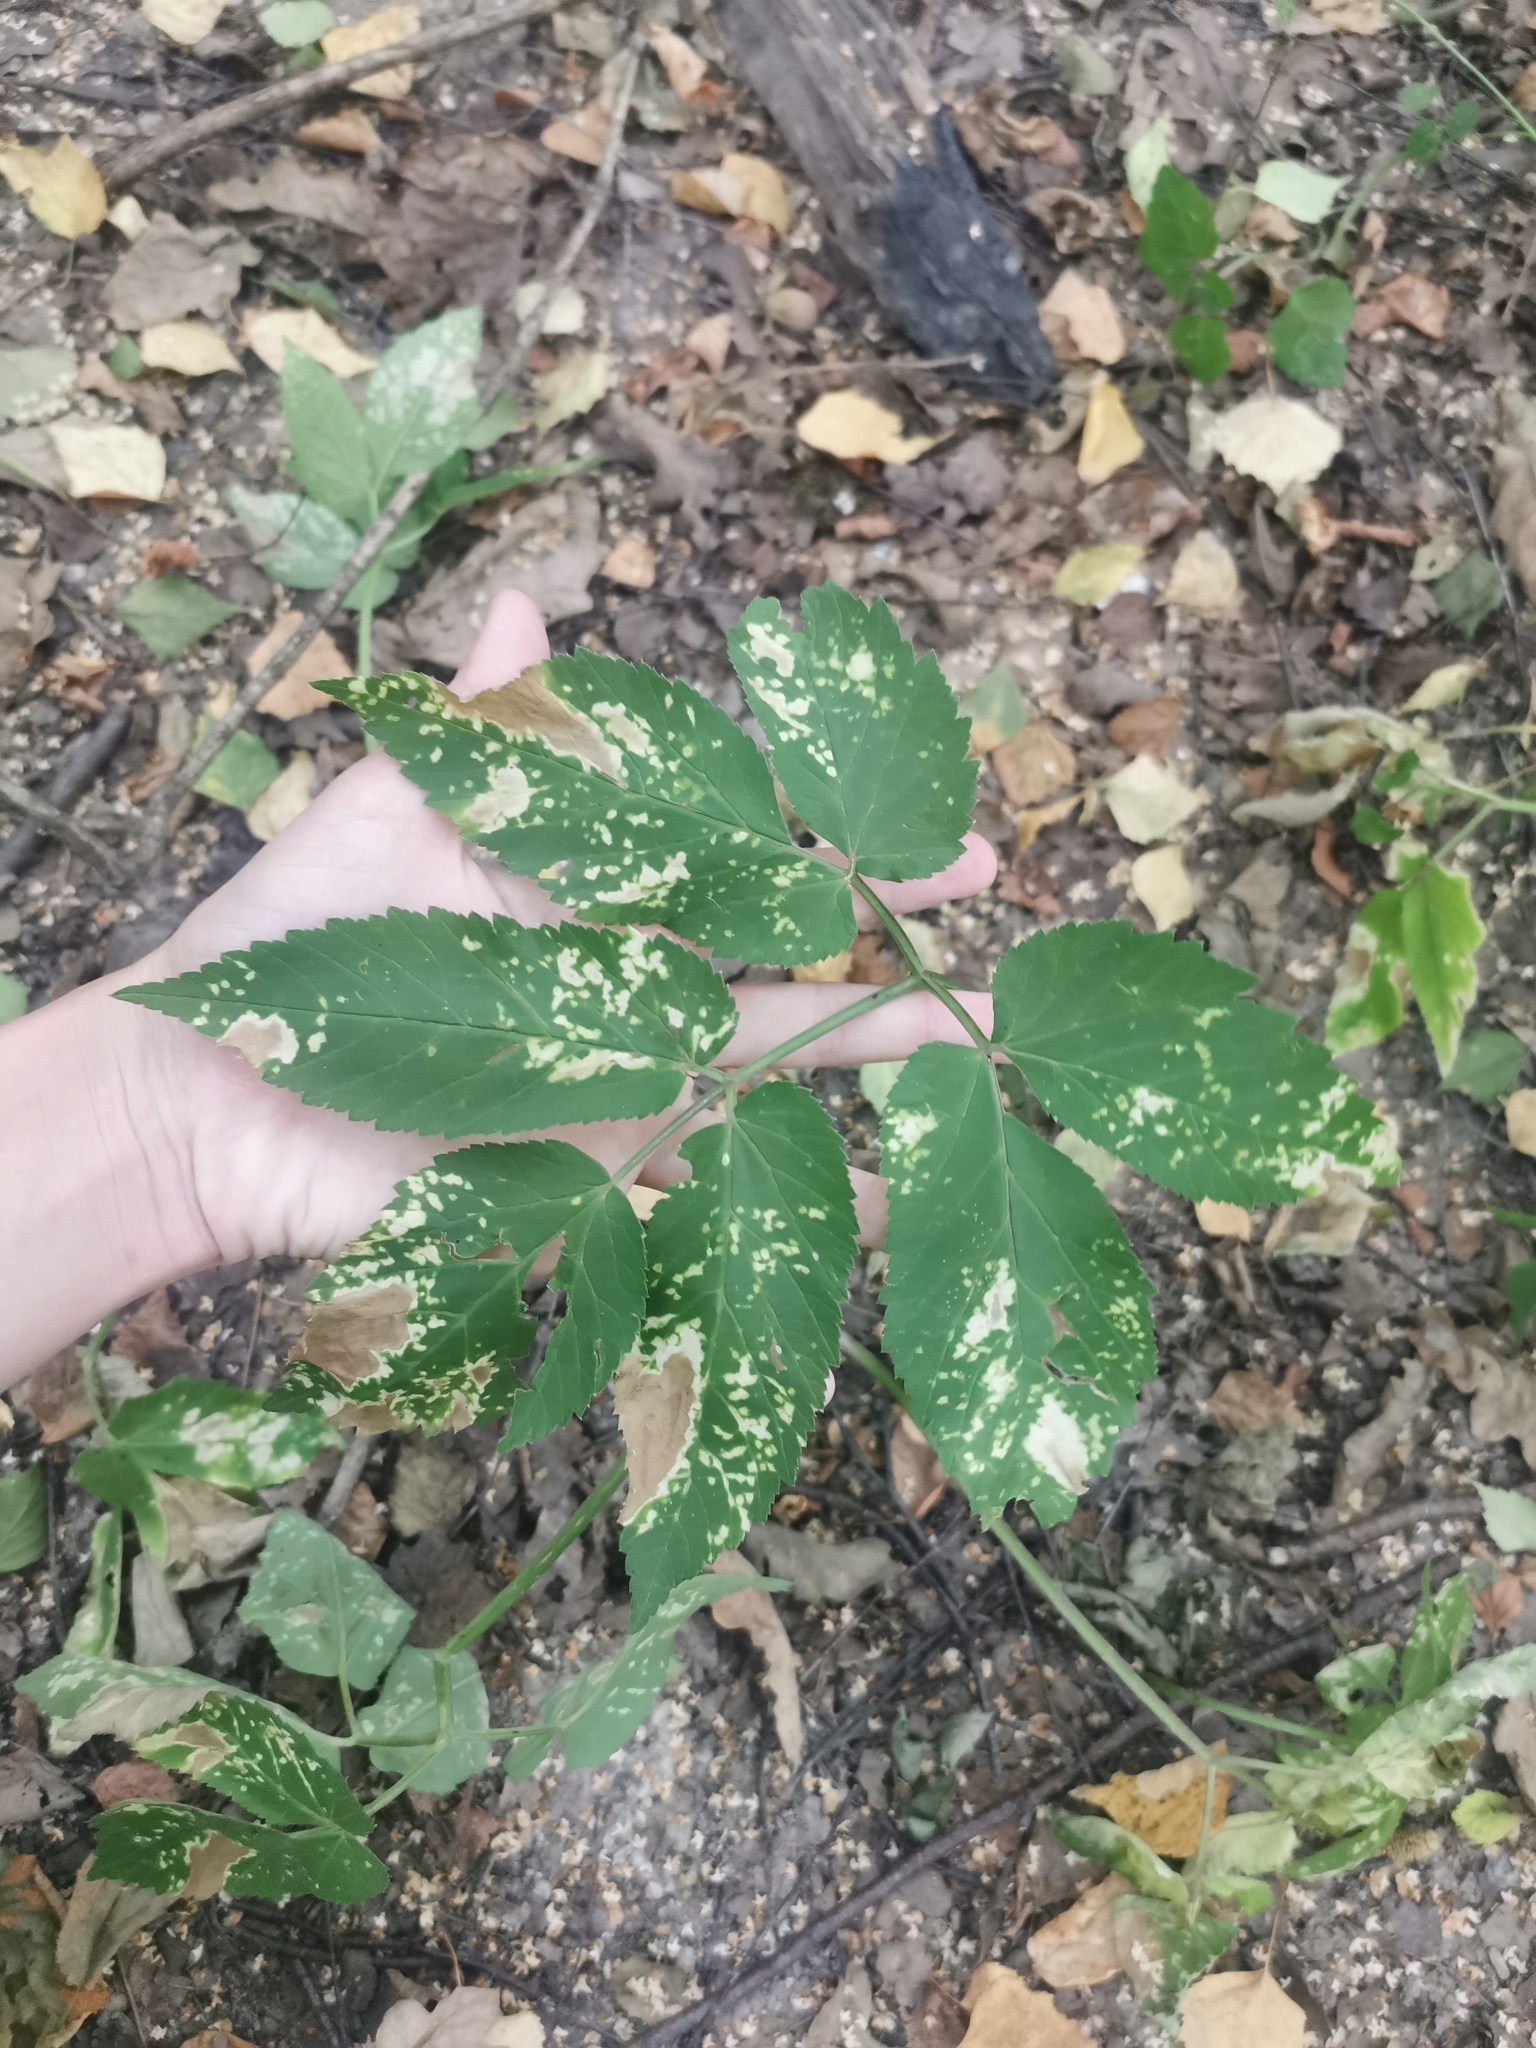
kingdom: Plantae
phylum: Tracheophyta
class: Magnoliopsida
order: Apiales
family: Apiaceae
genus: Aegopodium
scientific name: Aegopodium podagraria
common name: Ground-elder
